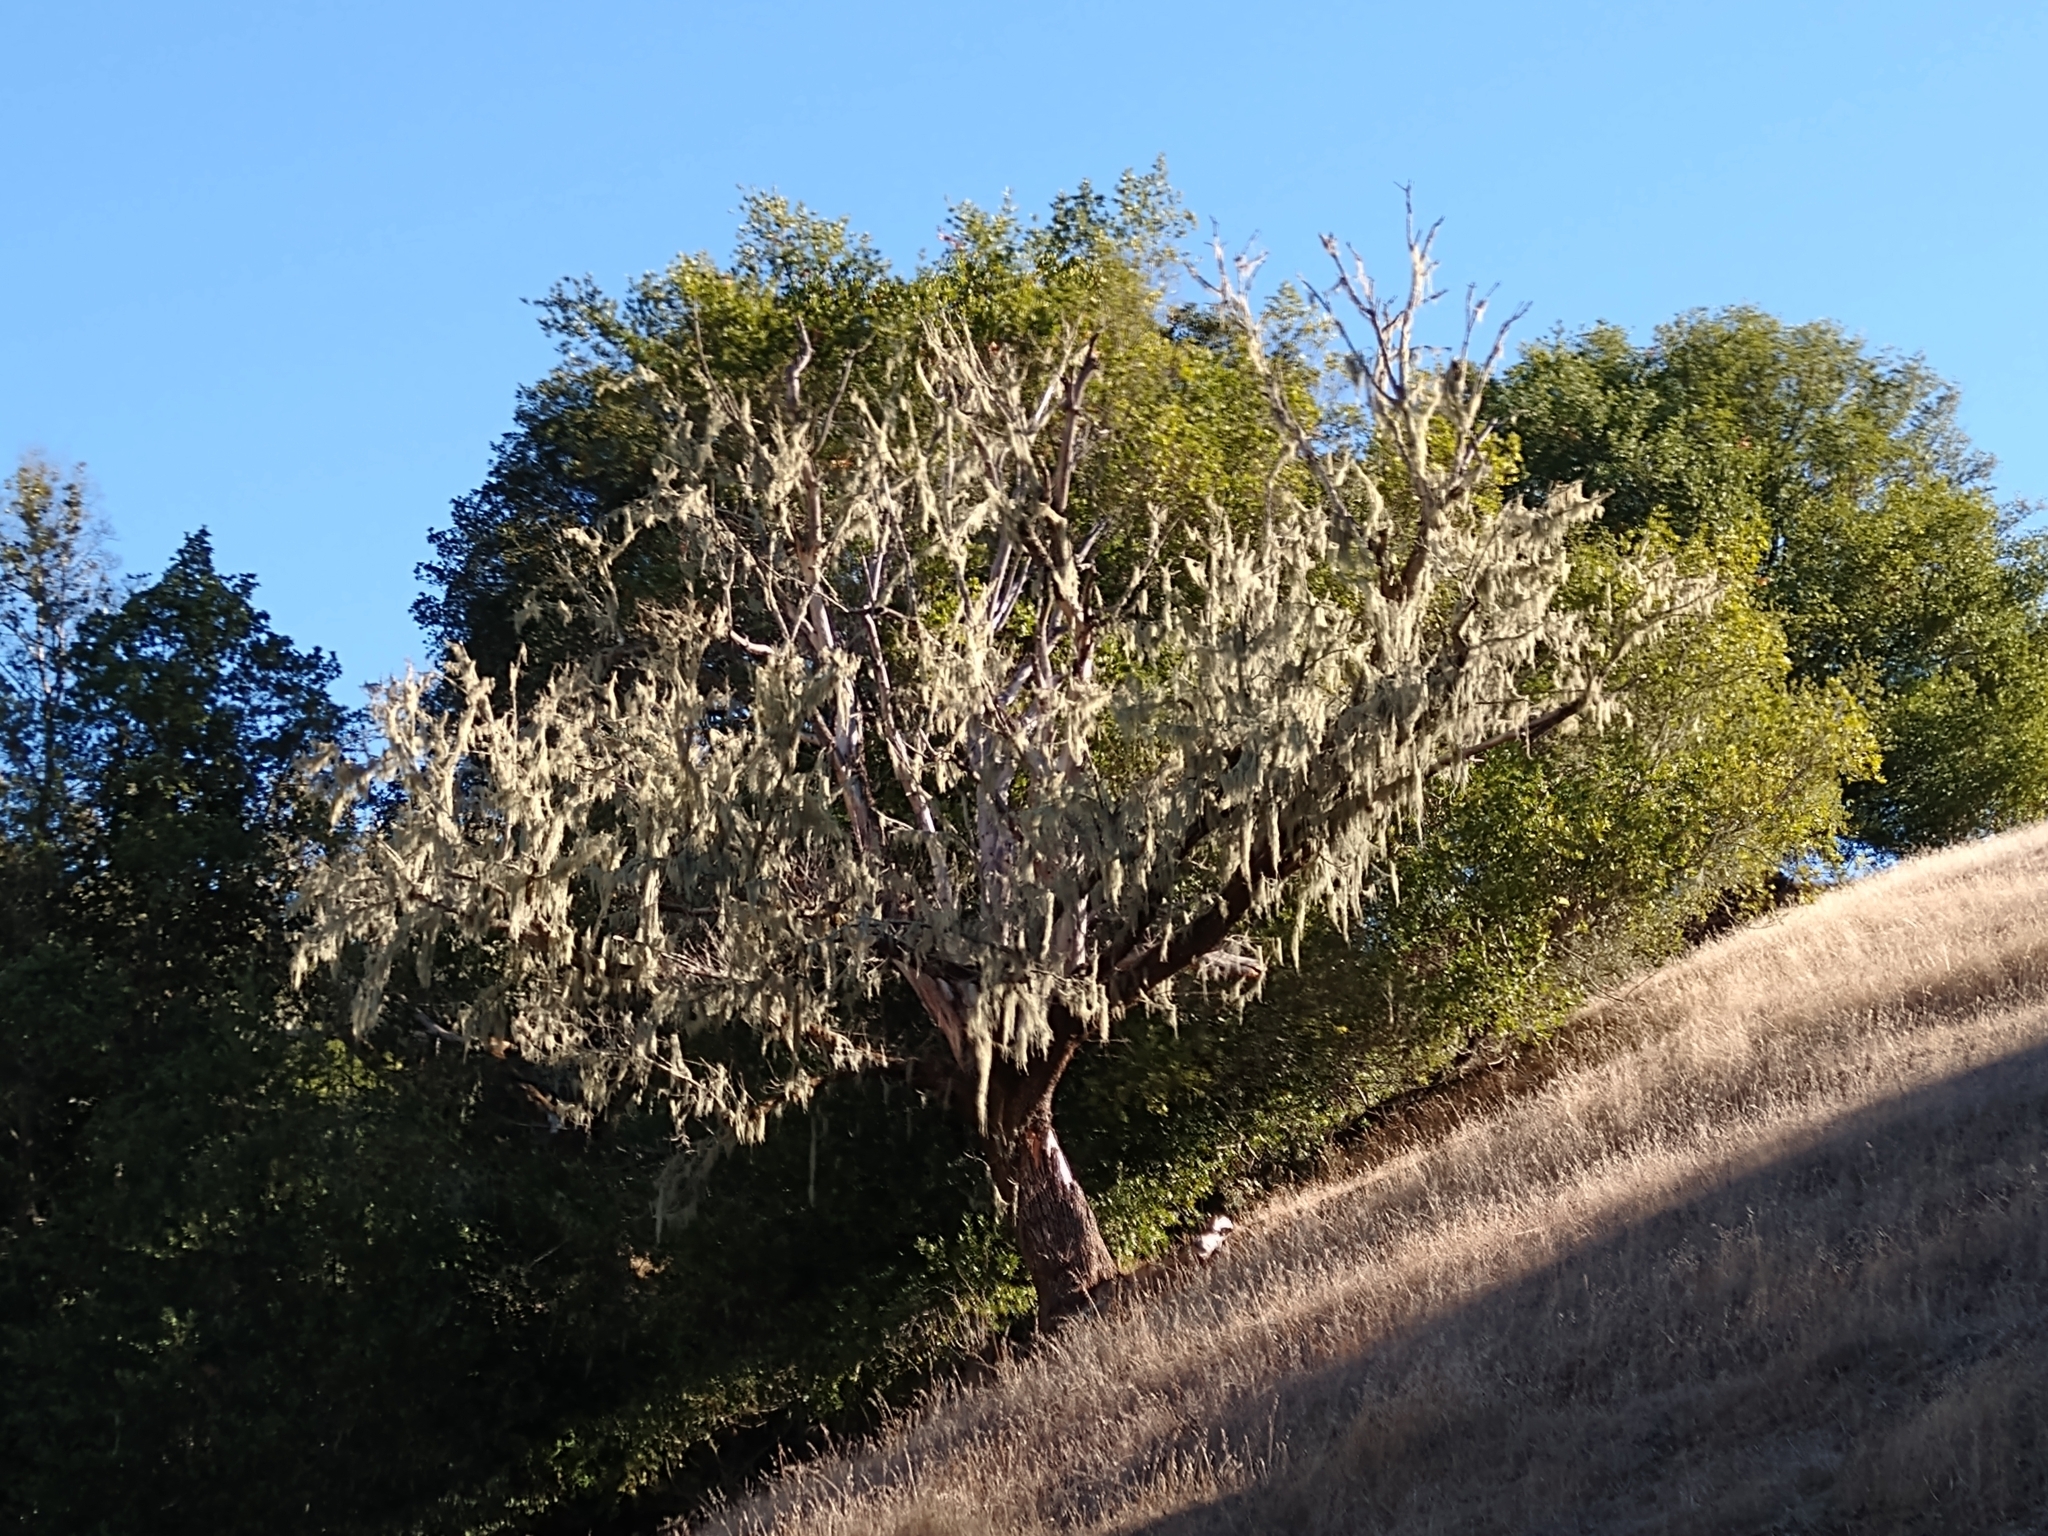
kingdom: Fungi
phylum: Ascomycota
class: Lecanoromycetes
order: Lecanorales
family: Ramalinaceae
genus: Ramalina
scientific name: Ramalina menziesii
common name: Lace lichen
